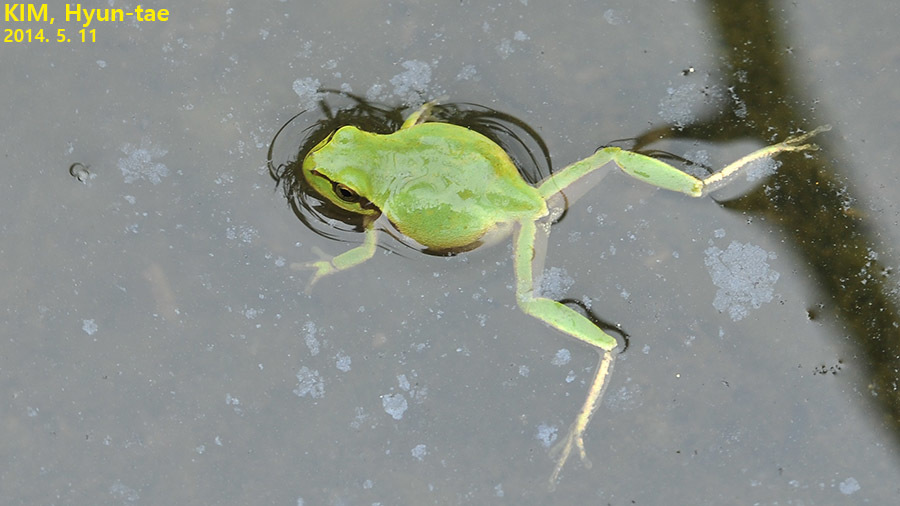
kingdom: Animalia
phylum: Chordata
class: Amphibia
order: Anura
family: Hylidae
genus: Dryophytes
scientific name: Dryophytes immaculatus
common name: North china treefrog
